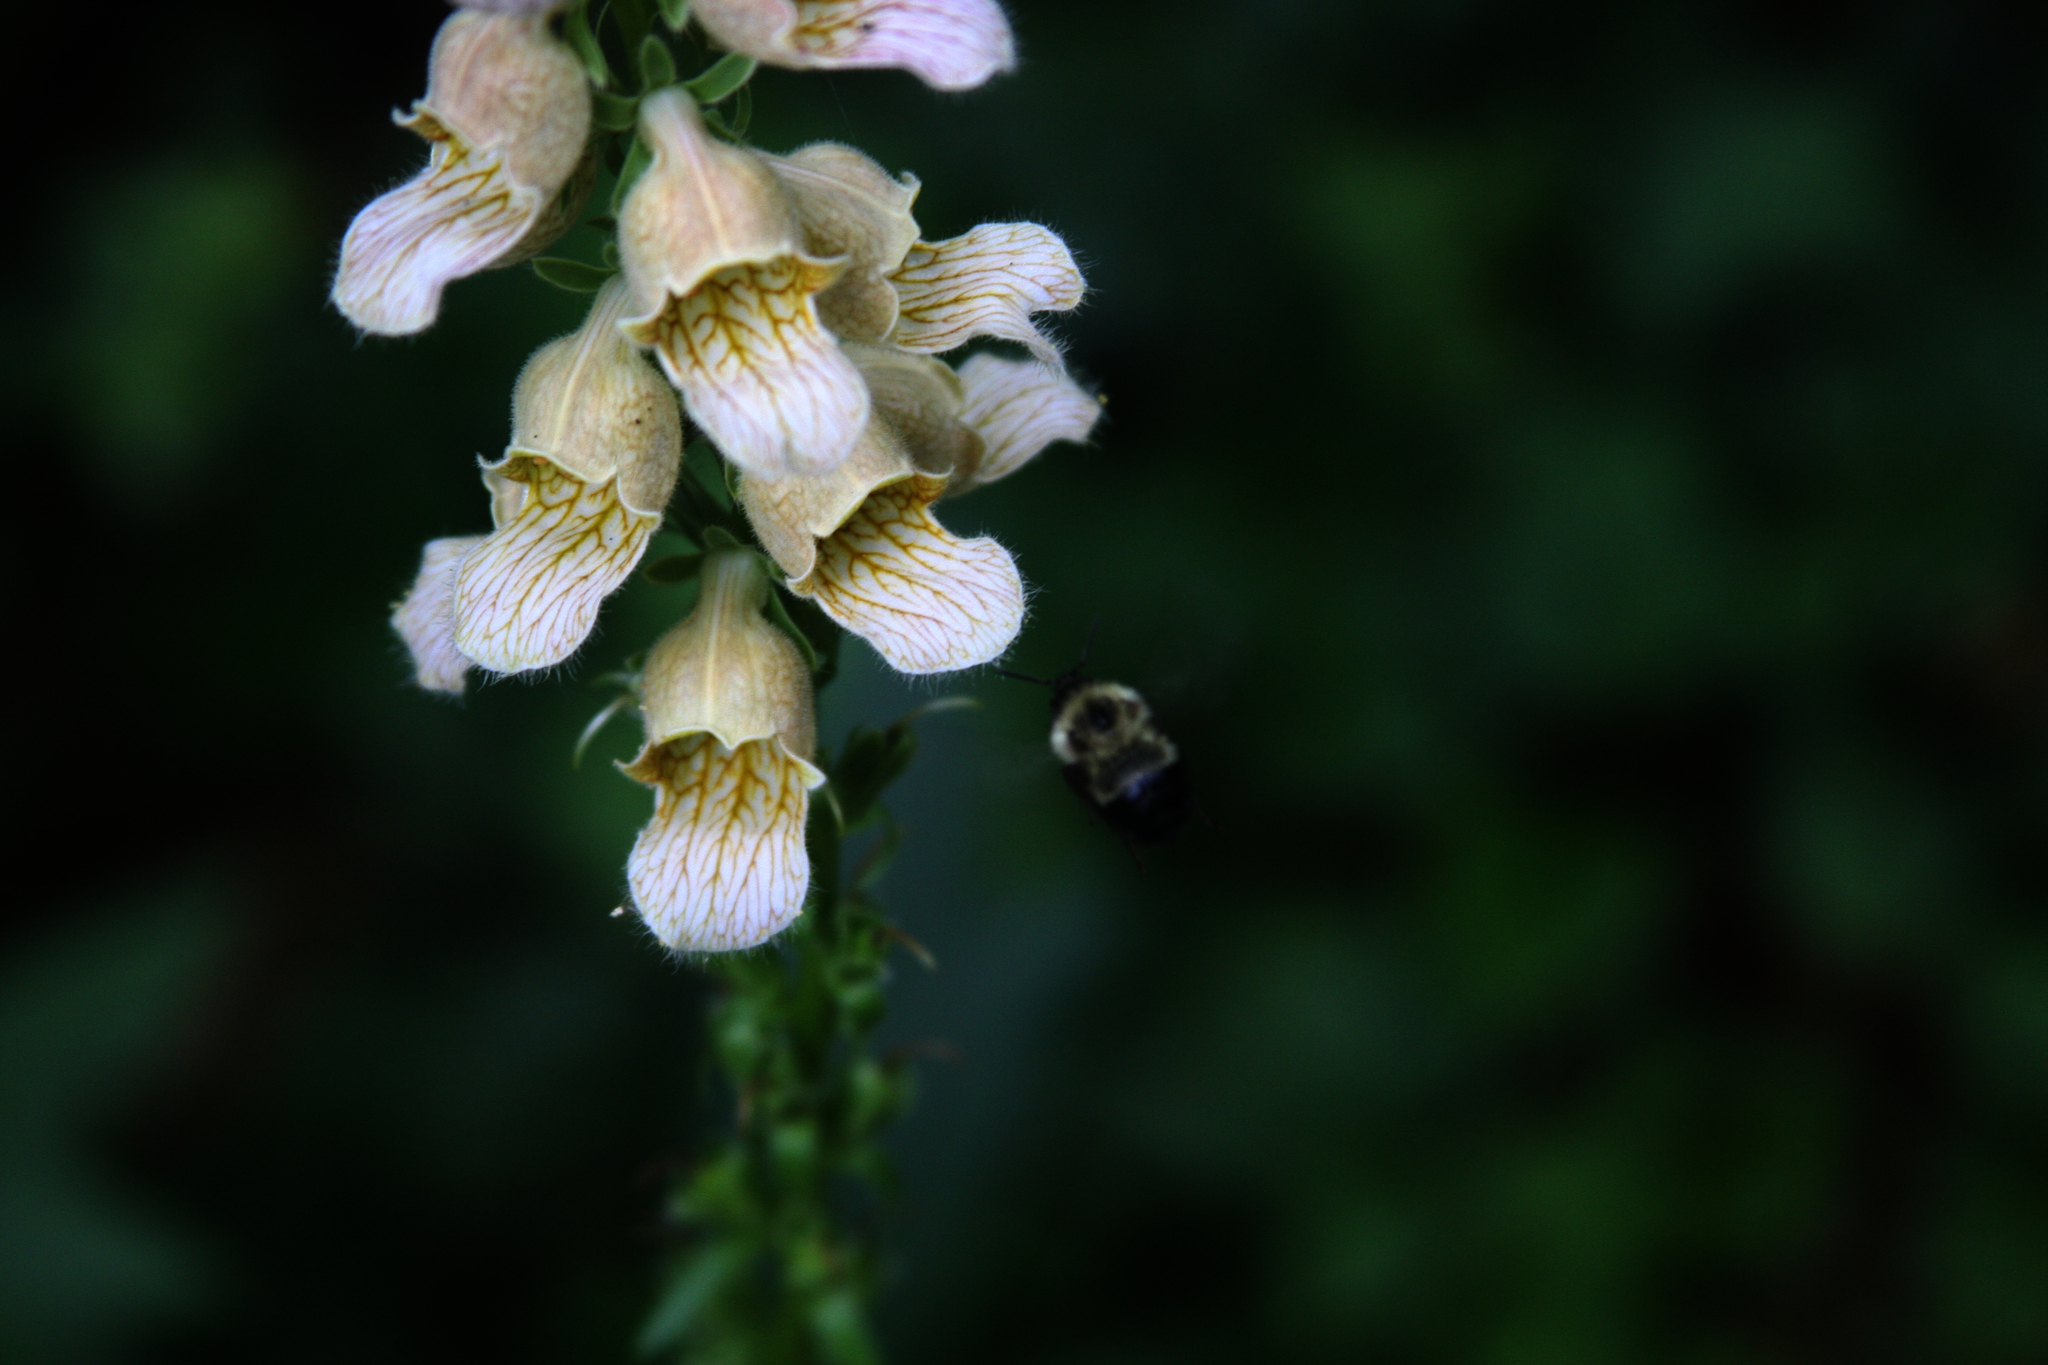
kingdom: Animalia
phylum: Arthropoda
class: Insecta
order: Hymenoptera
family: Apidae
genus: Pyrobombus
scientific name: Pyrobombus
